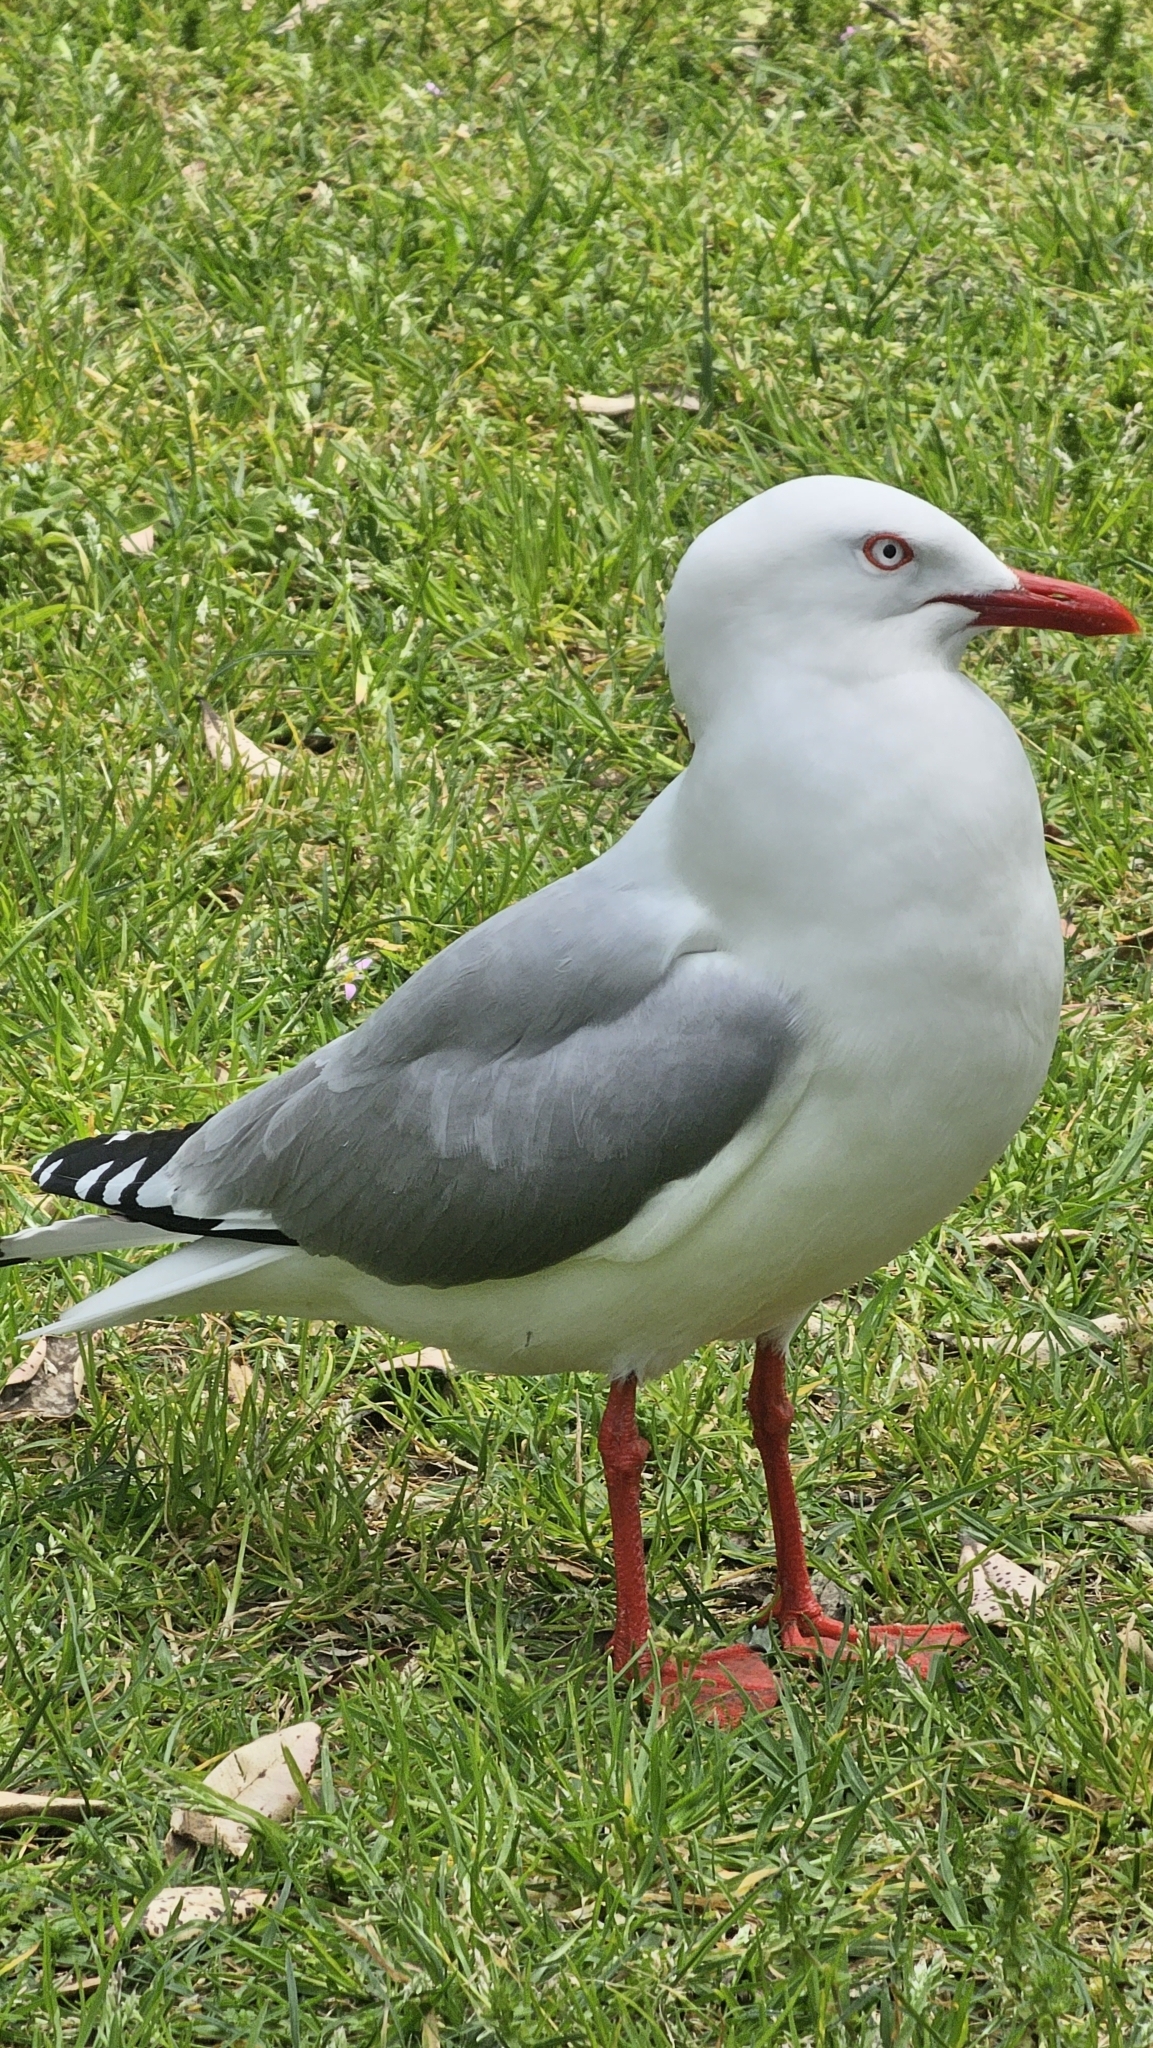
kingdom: Animalia
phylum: Chordata
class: Aves
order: Charadriiformes
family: Laridae
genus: Chroicocephalus
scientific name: Chroicocephalus novaehollandiae
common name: Silver gull
